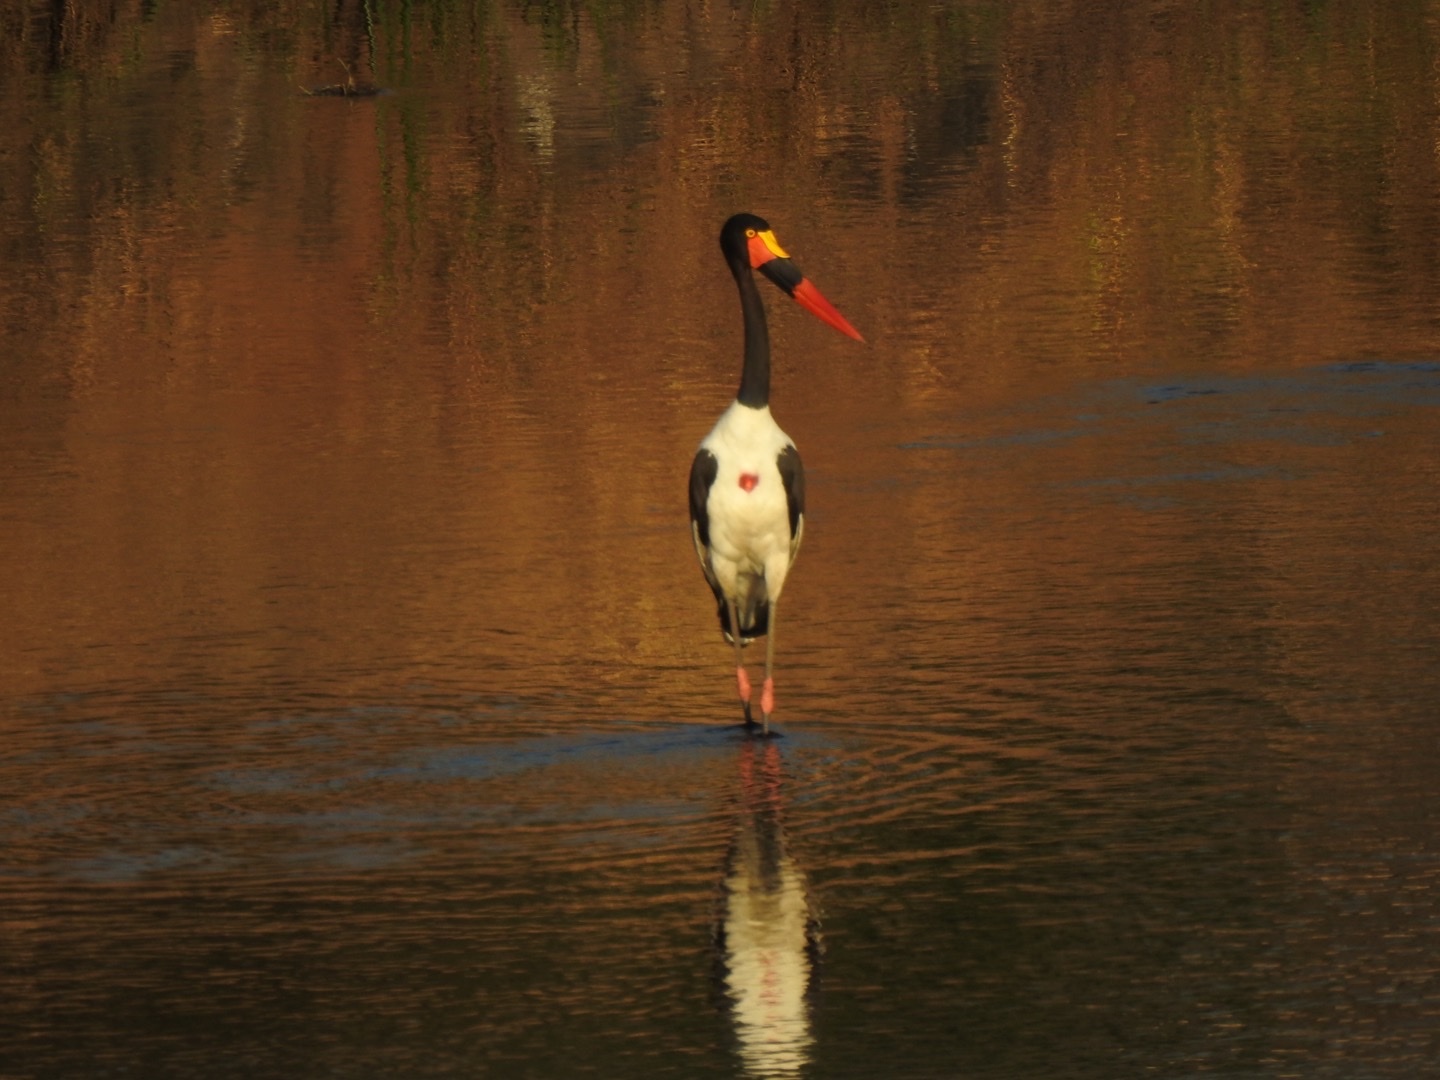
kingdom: Animalia
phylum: Chordata
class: Aves
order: Ciconiiformes
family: Ciconiidae
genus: Ephippiorhynchus
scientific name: Ephippiorhynchus senegalensis
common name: Saddle-billed stork
